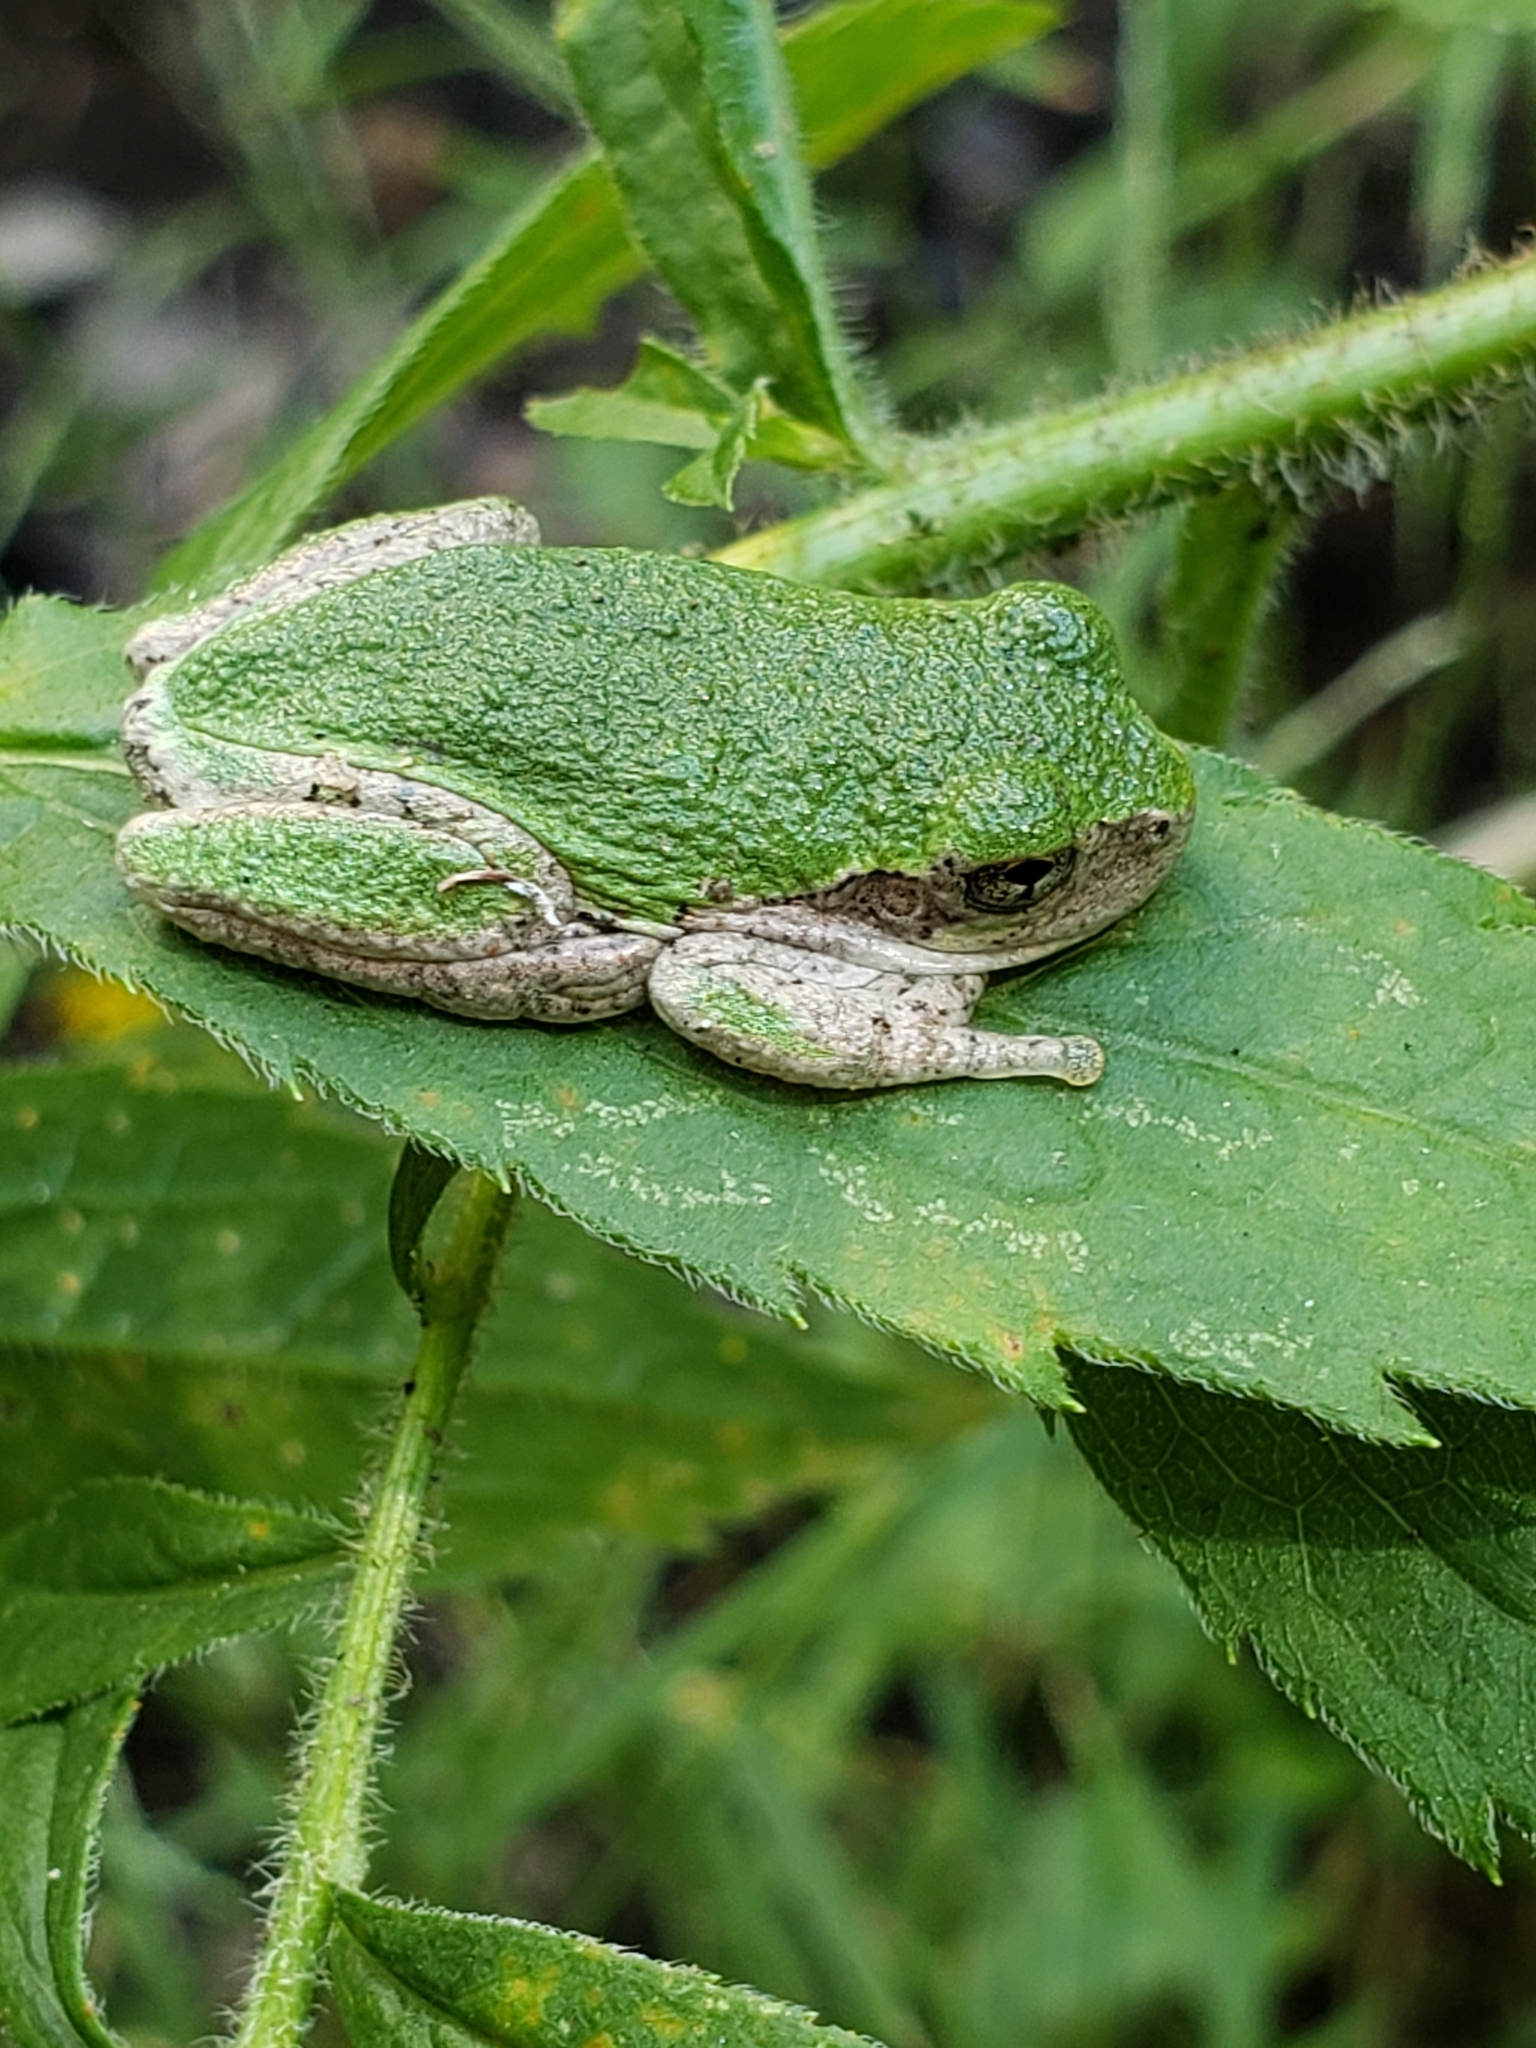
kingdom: Animalia
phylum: Chordata
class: Amphibia
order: Anura
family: Hylidae
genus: Dryophytes
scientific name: Dryophytes versicolor
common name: Gray treefrog
